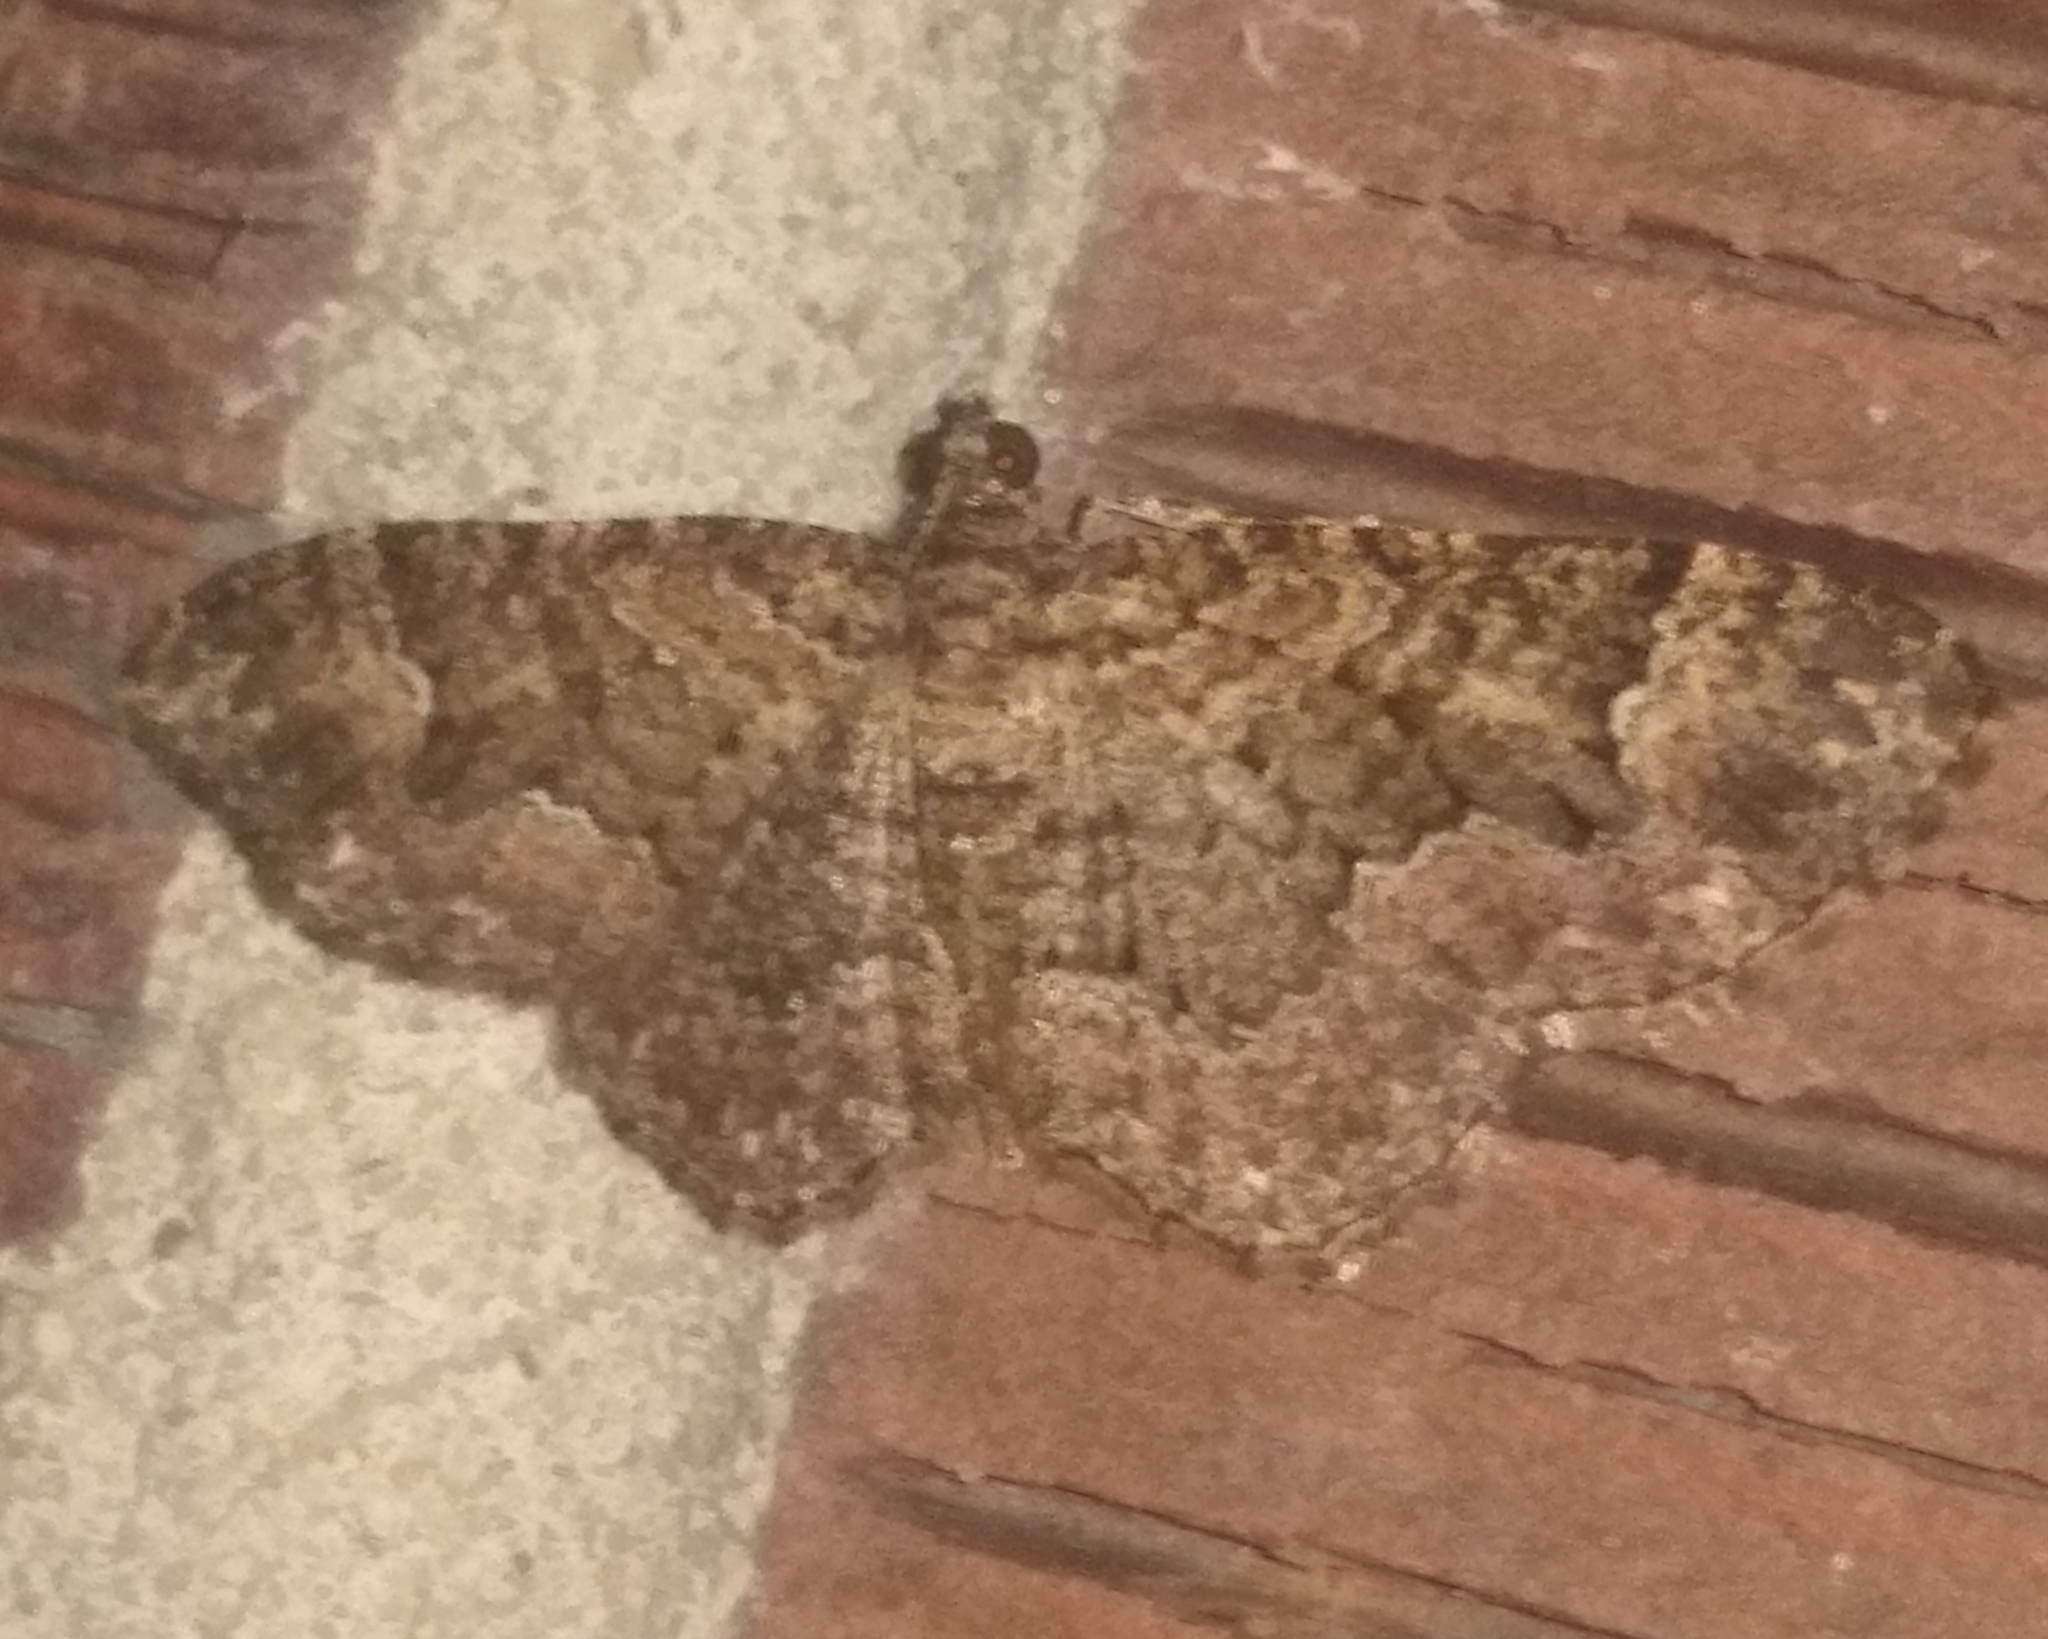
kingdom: Animalia
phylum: Arthropoda
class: Insecta
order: Lepidoptera
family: Geometridae
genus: Disclisioprocta
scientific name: Disclisioprocta stellata
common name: Somber carpet
